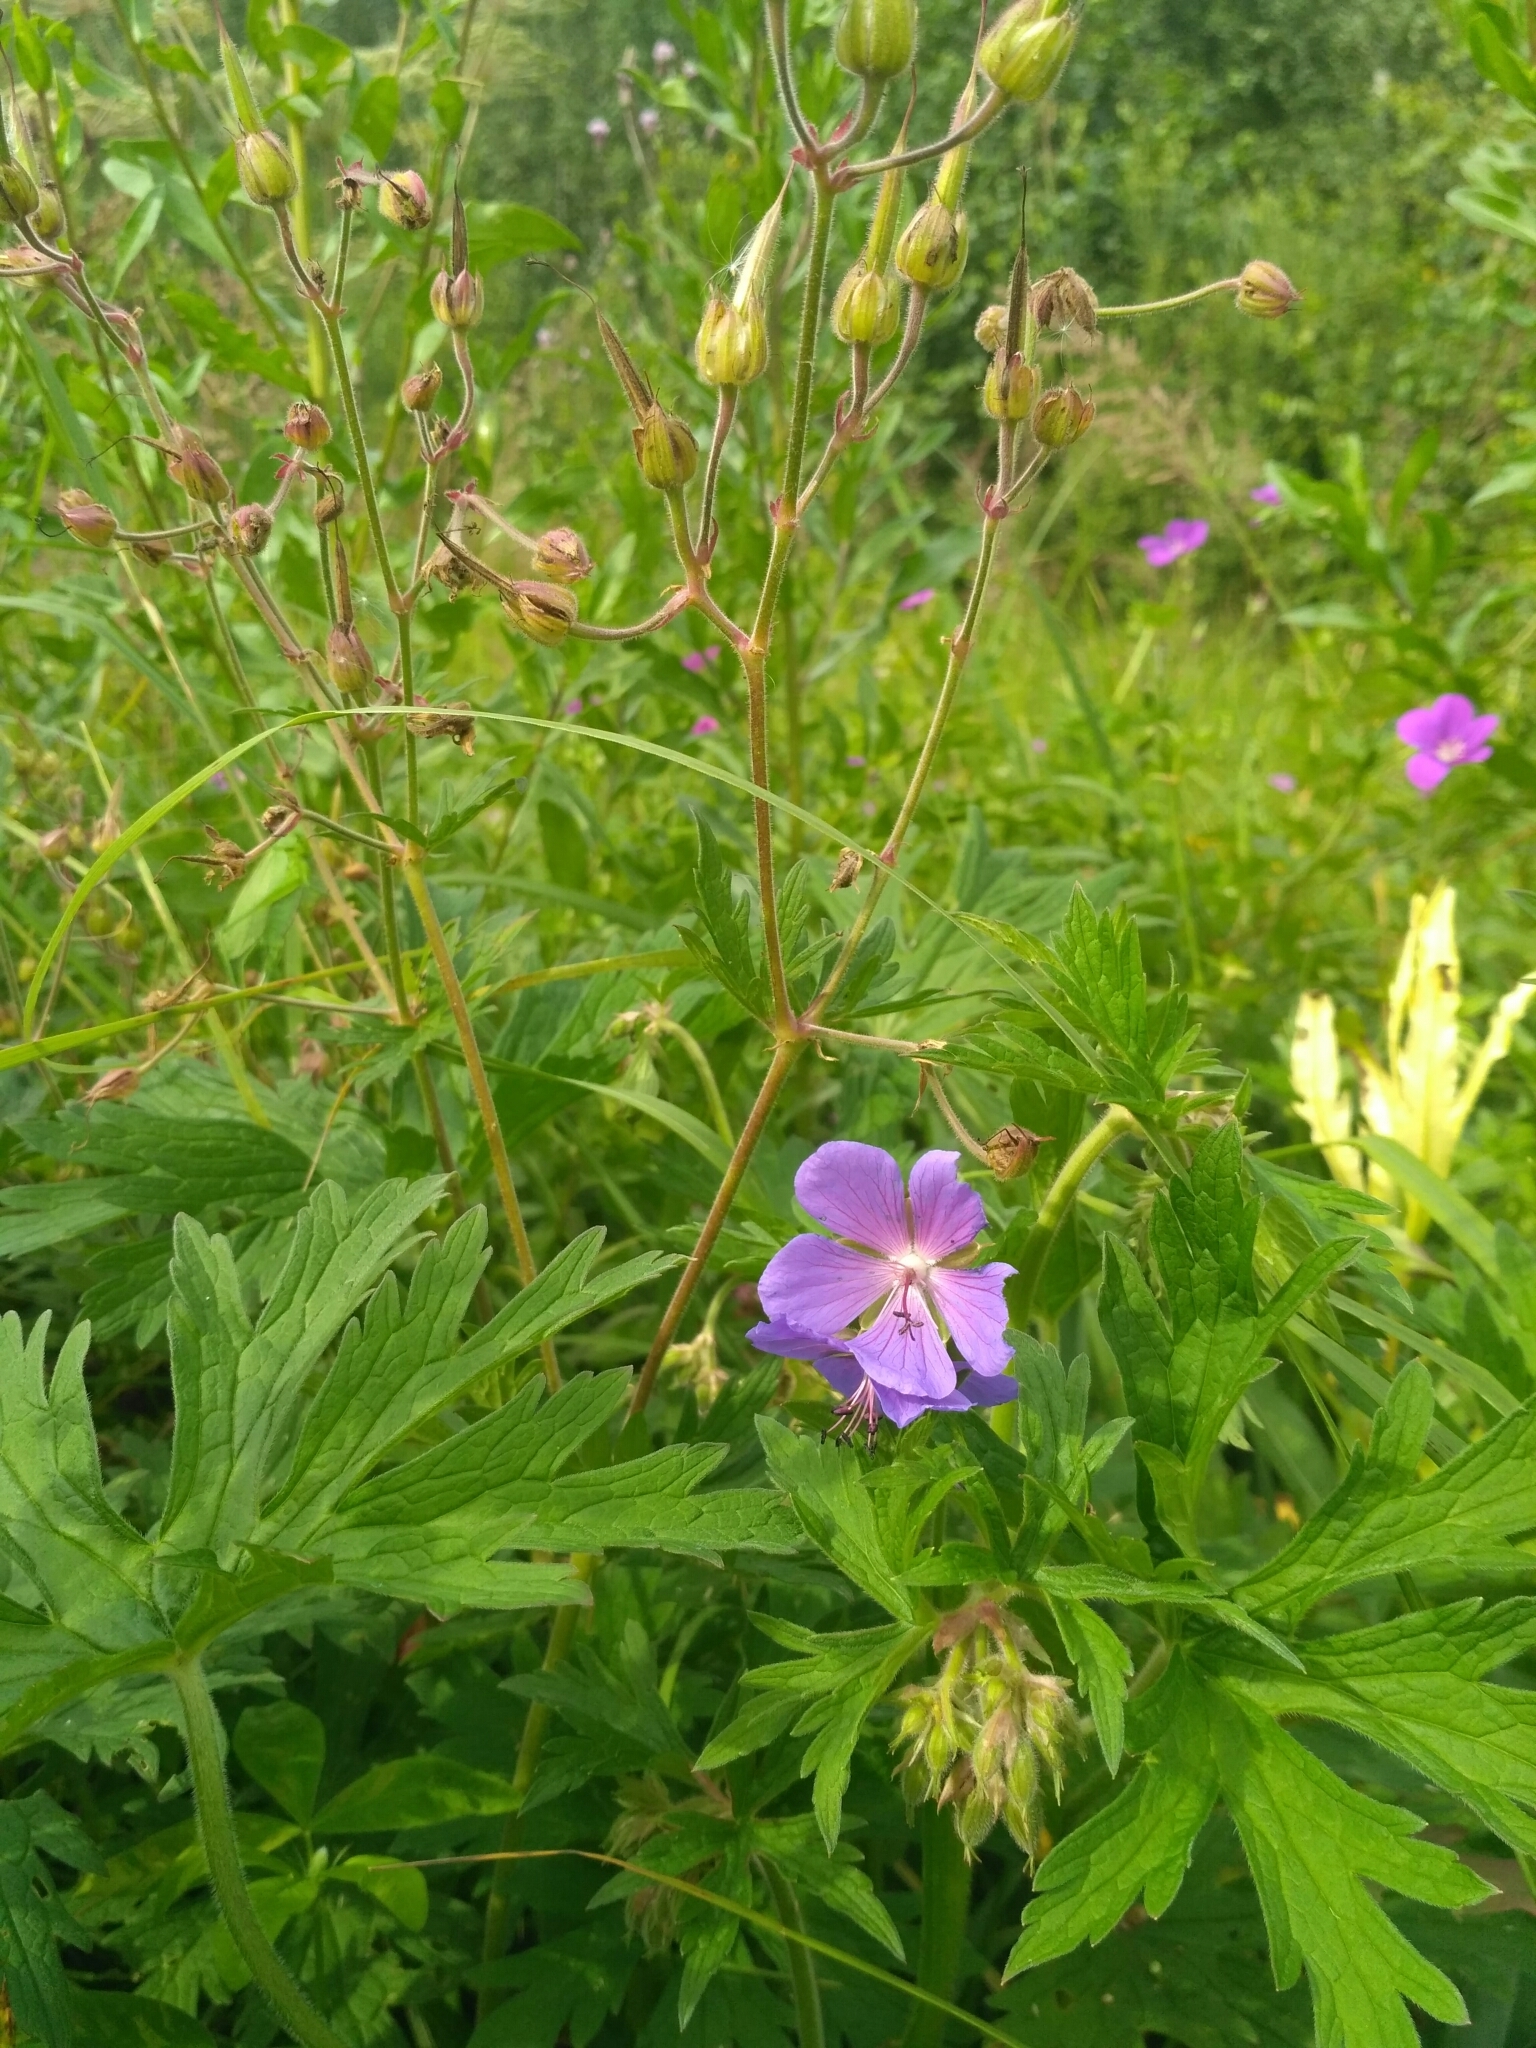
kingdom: Plantae
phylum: Tracheophyta
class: Magnoliopsida
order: Geraniales
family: Geraniaceae
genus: Geranium
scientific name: Geranium pratense
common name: Meadow crane's-bill
